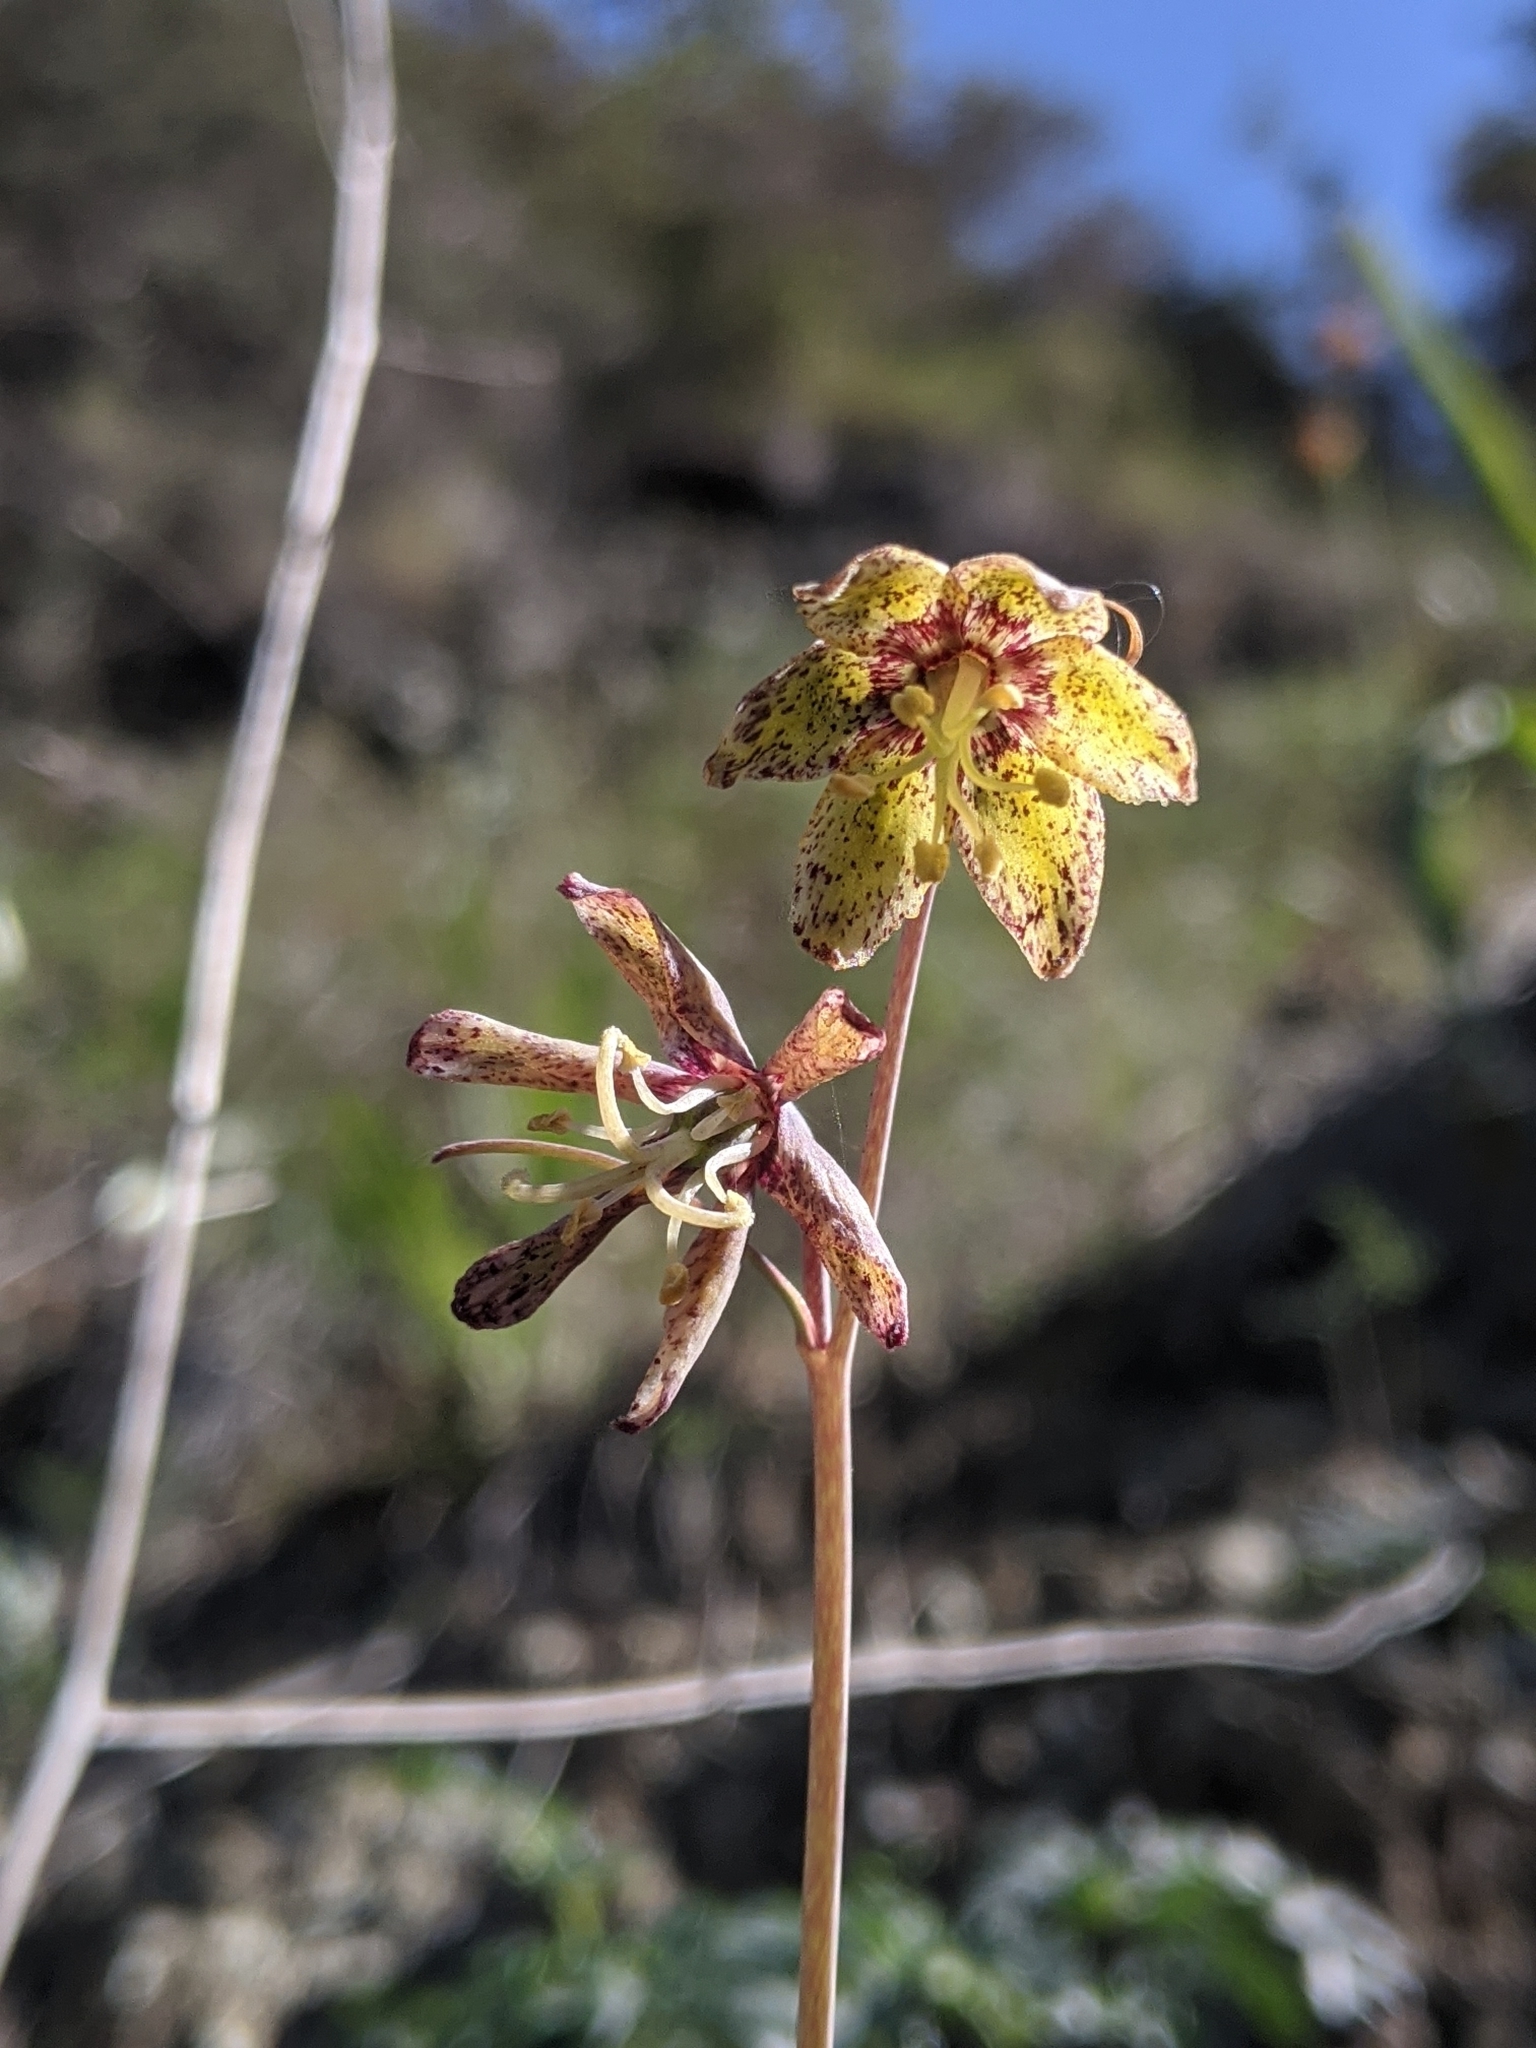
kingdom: Plantae
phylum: Tracheophyta
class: Liliopsida
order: Liliales
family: Liliaceae
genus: Fritillaria
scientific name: Fritillaria ojaiensis
